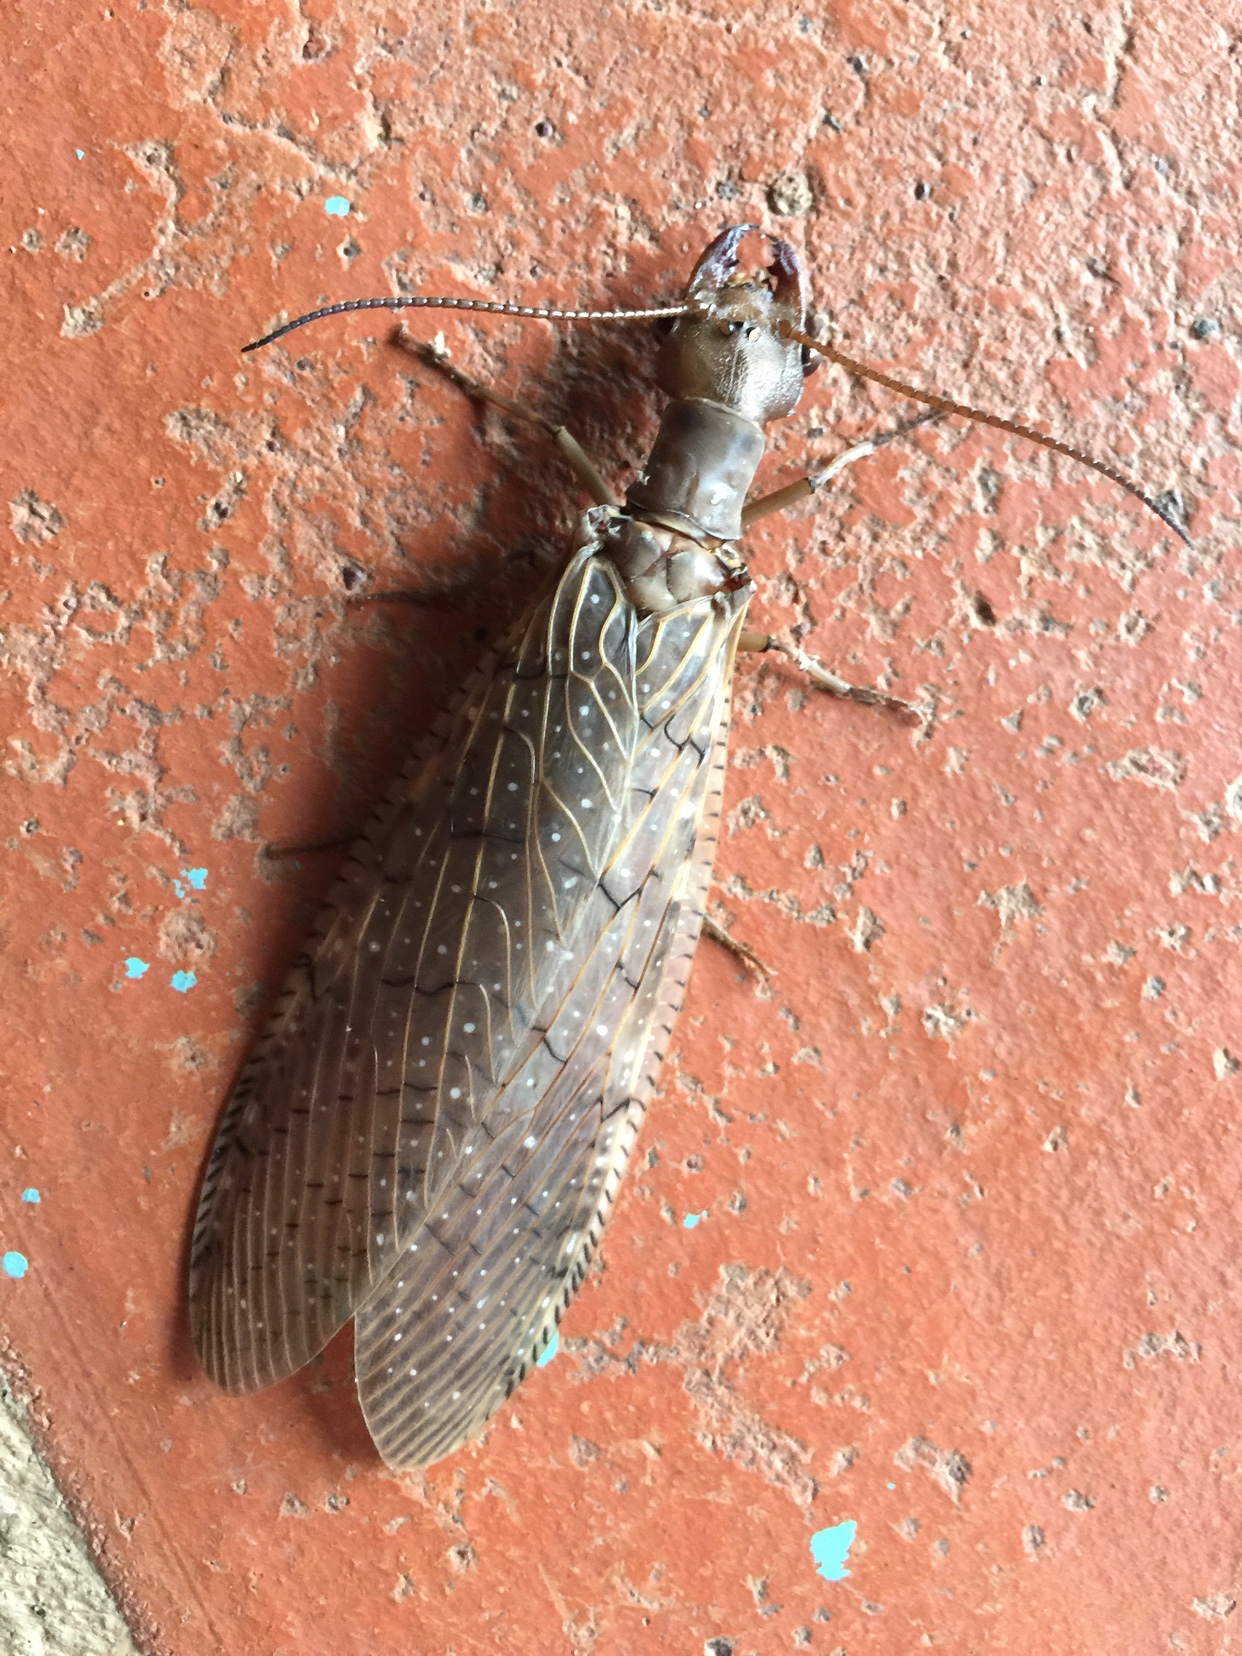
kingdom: Animalia
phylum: Arthropoda
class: Insecta
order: Megaloptera
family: Corydalidae
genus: Corydalus
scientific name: Corydalus luteus
